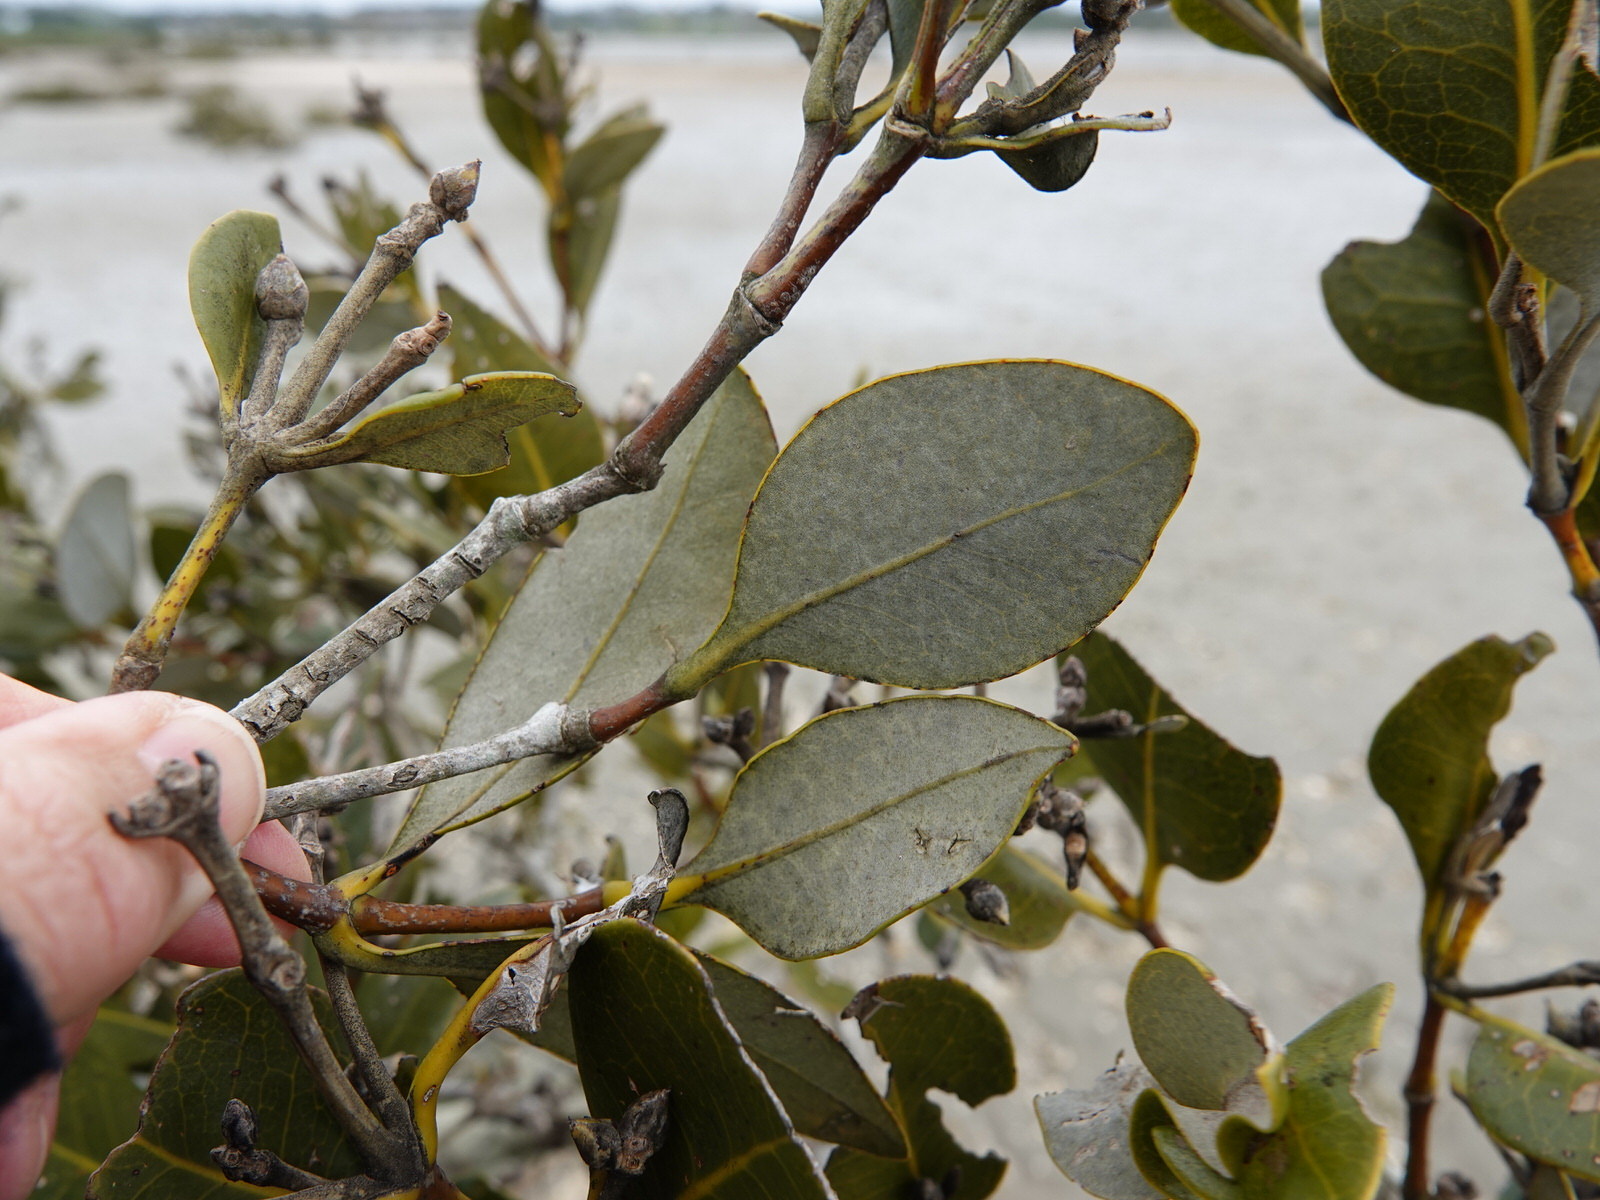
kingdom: Plantae
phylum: Tracheophyta
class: Magnoliopsida
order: Lamiales
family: Acanthaceae
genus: Avicennia
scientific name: Avicennia marina
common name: Gray mangrove
